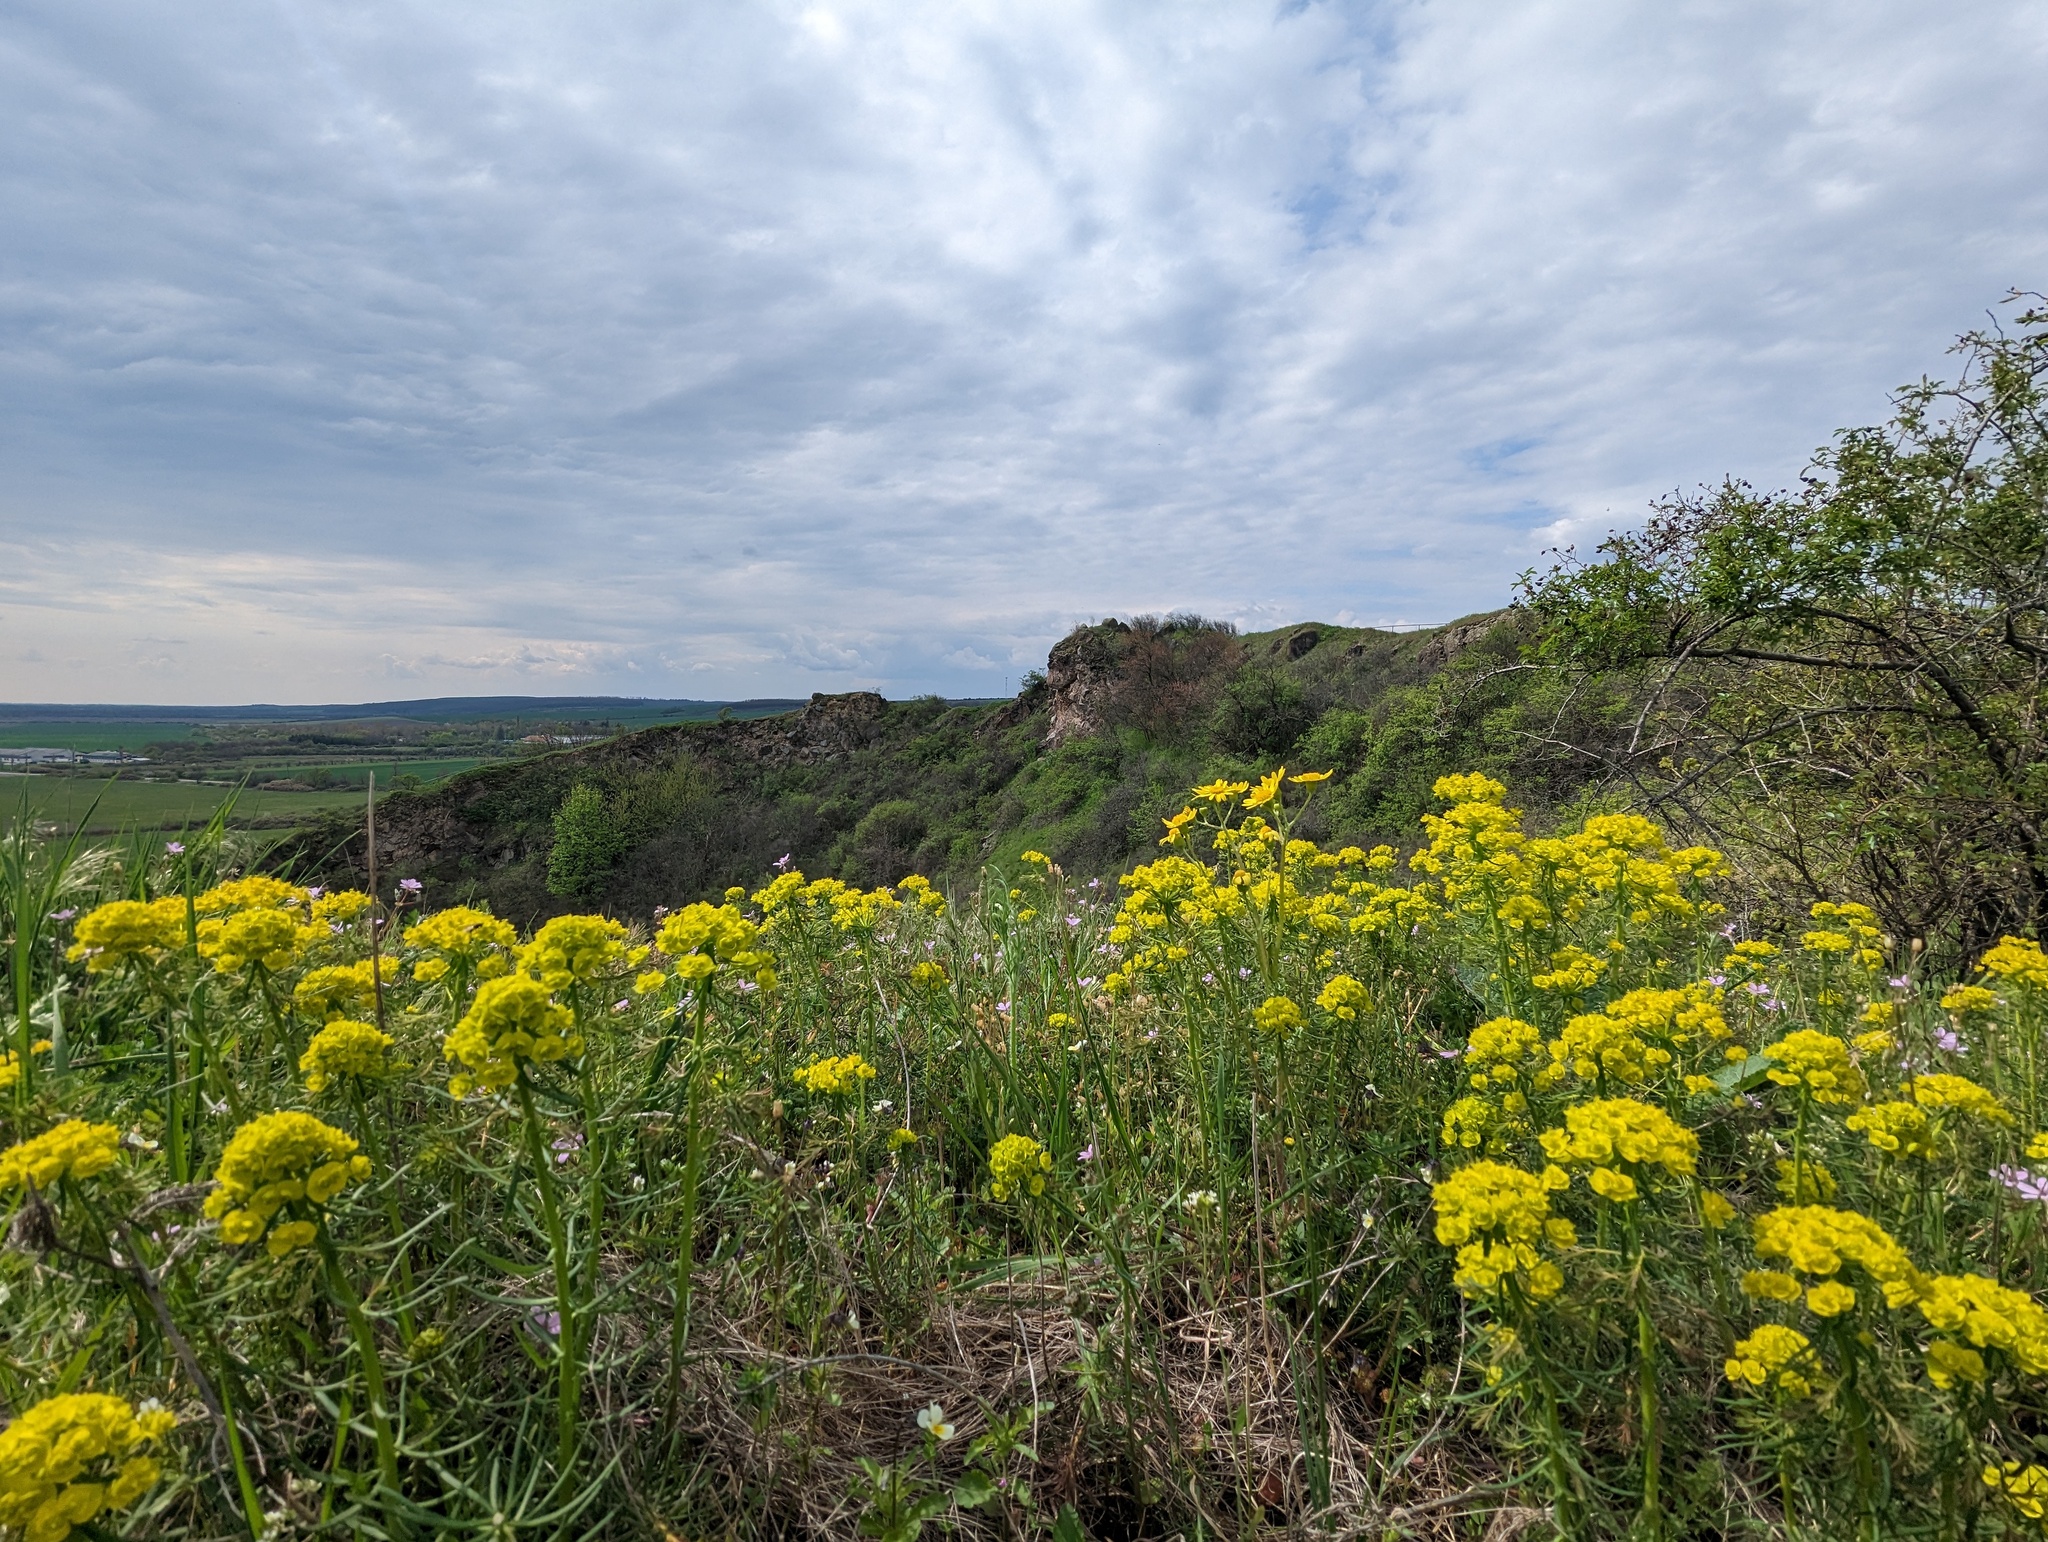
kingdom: Plantae
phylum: Tracheophyta
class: Magnoliopsida
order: Malpighiales
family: Euphorbiaceae
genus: Euphorbia
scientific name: Euphorbia cyparissias
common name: Cypress spurge
